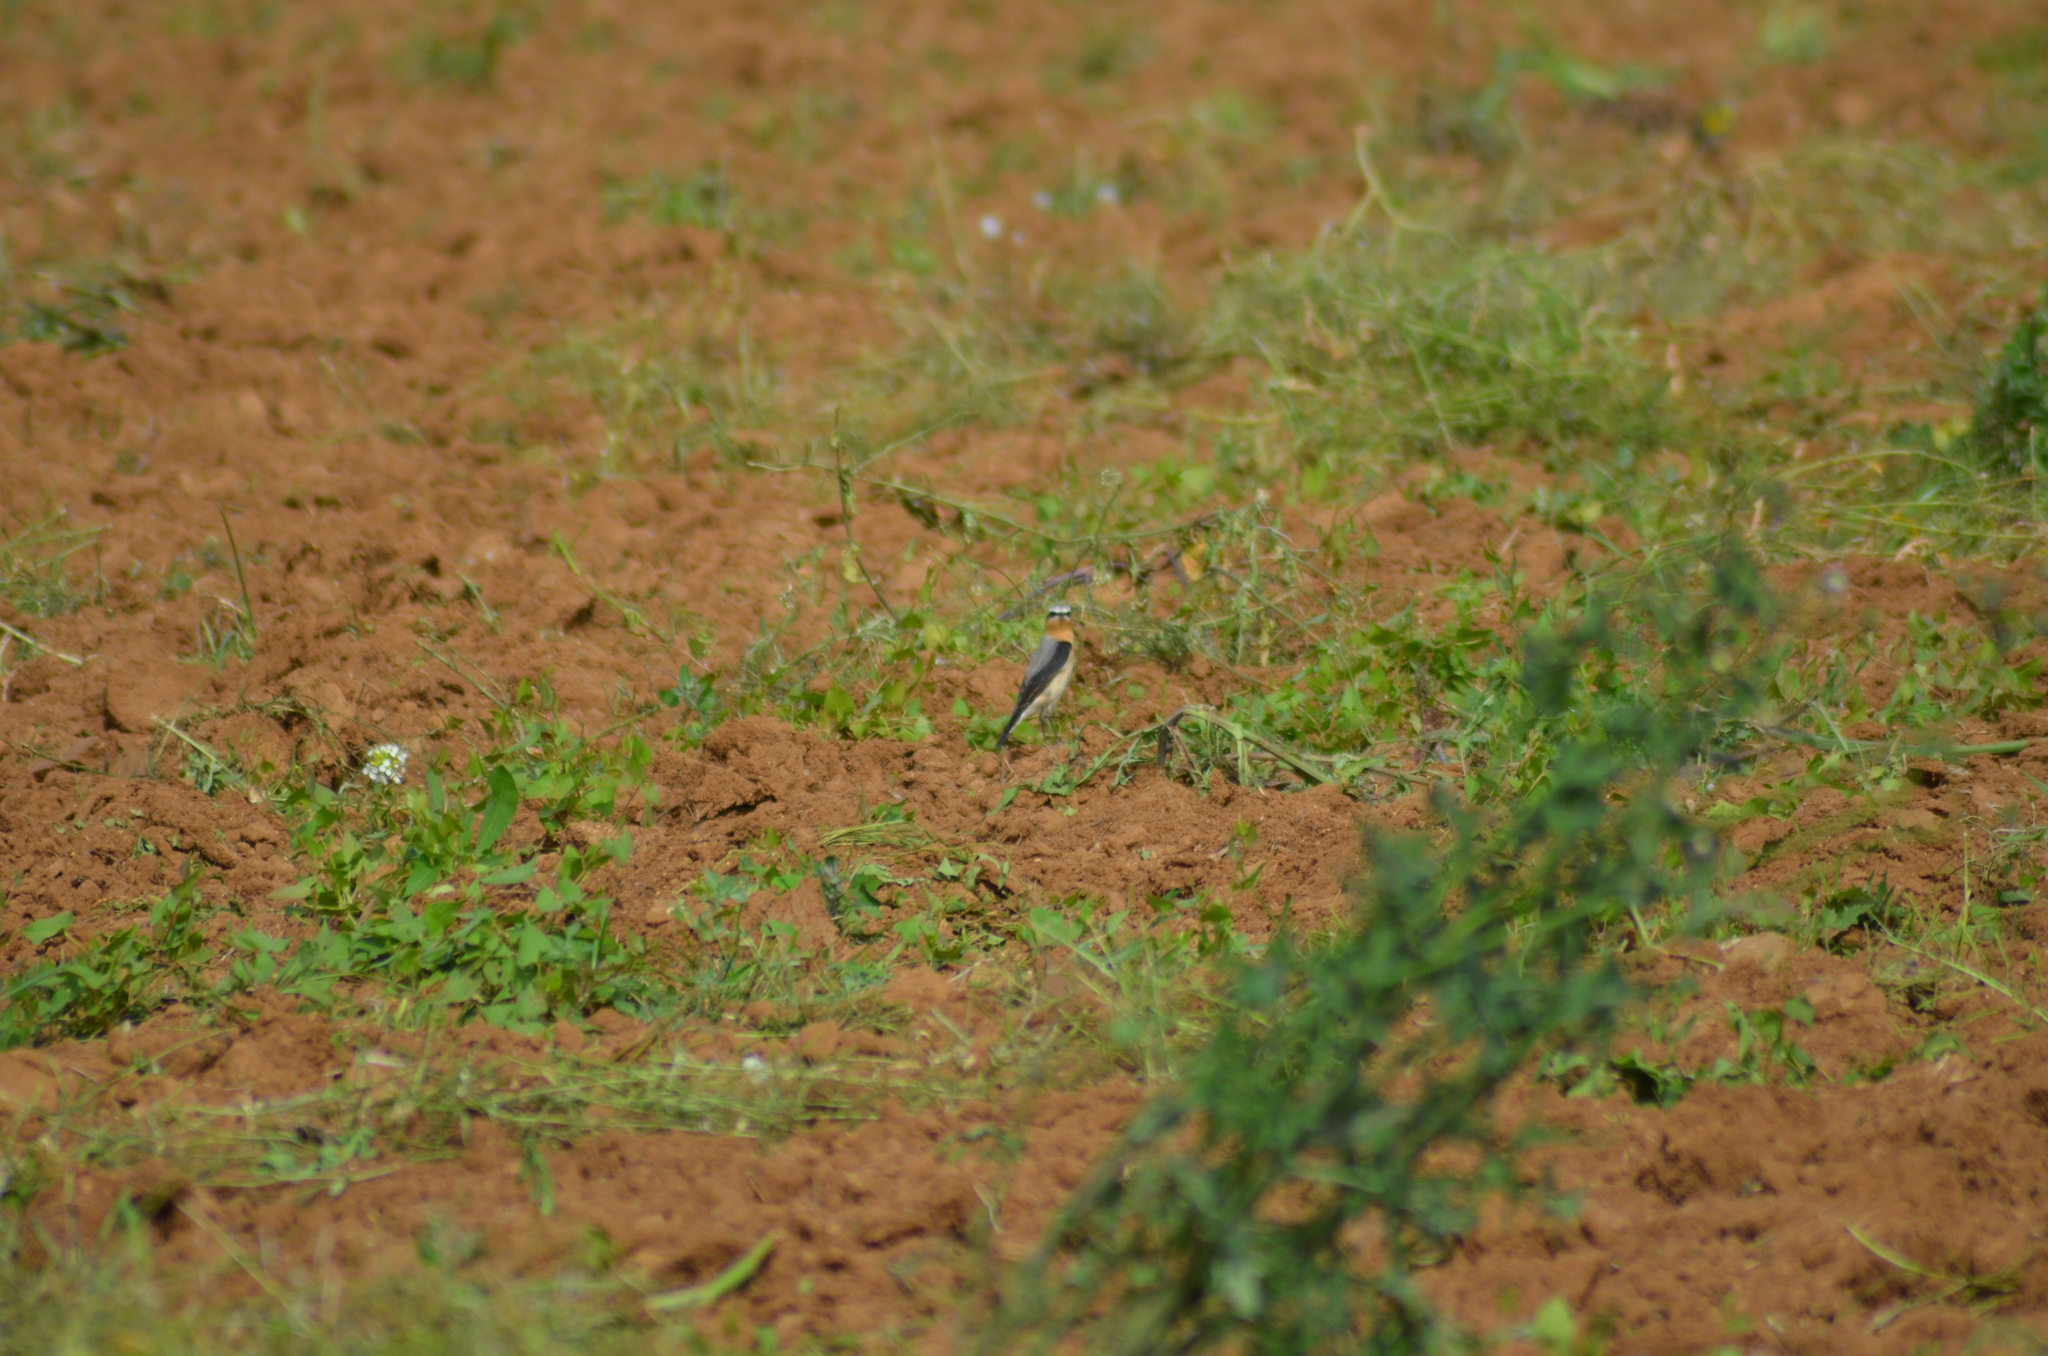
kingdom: Animalia
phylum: Chordata
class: Aves
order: Passeriformes
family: Muscicapidae
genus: Oenanthe
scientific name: Oenanthe oenanthe
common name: Northern wheatear
